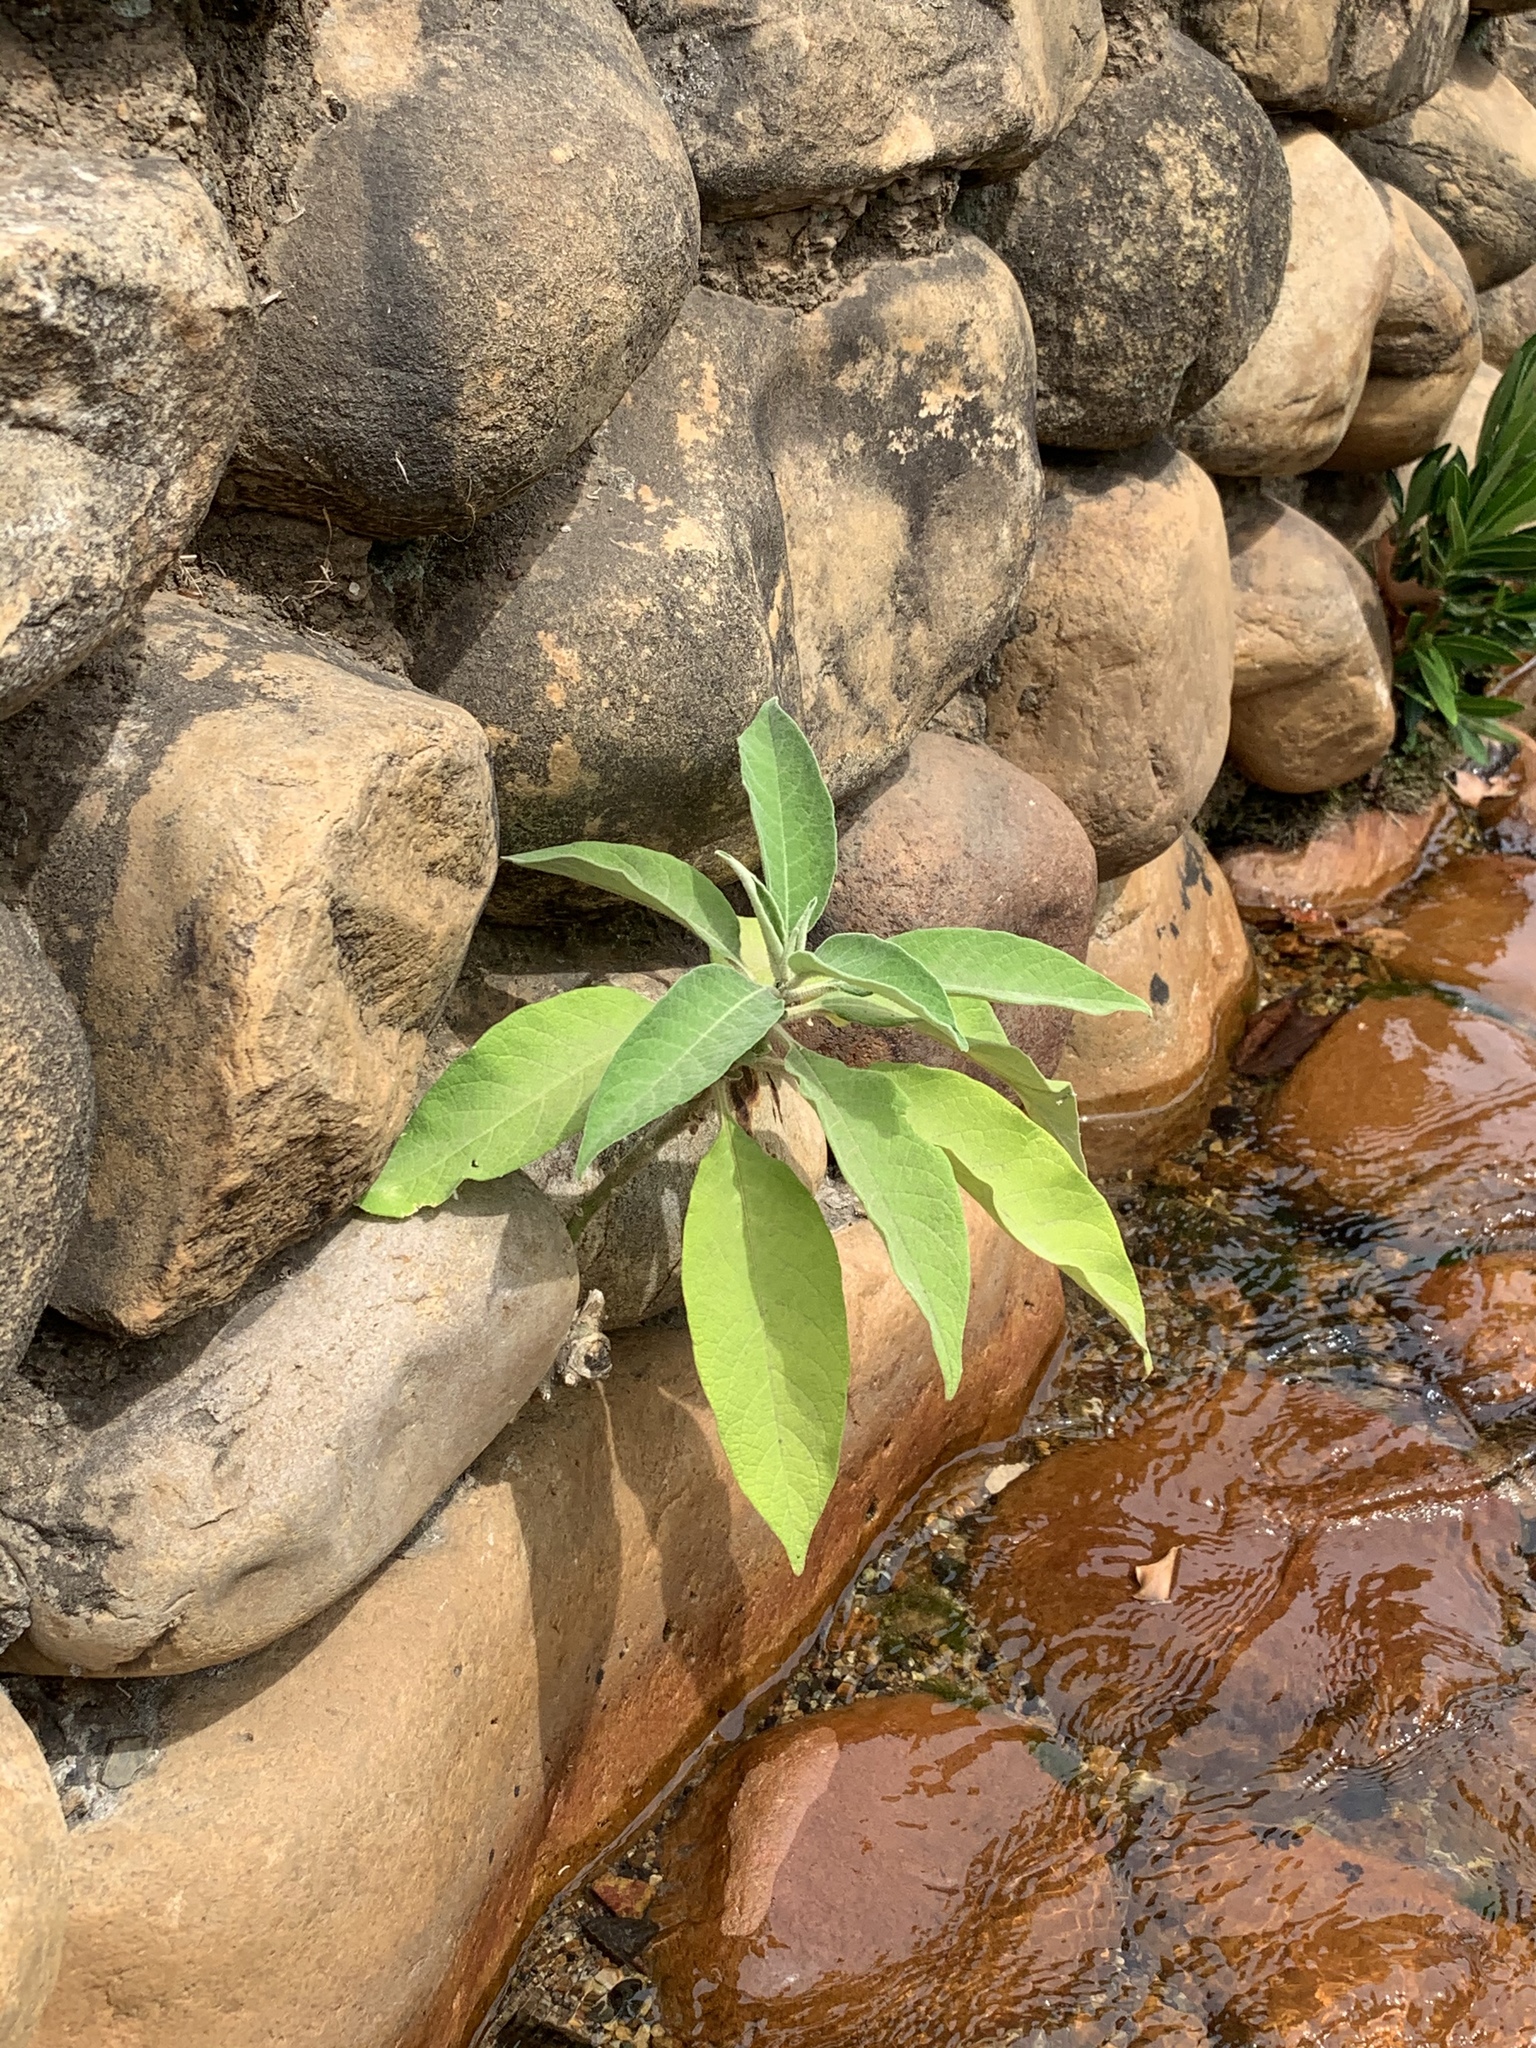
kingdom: Plantae
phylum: Tracheophyta
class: Magnoliopsida
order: Solanales
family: Solanaceae
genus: Solanum
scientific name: Solanum mauritianum
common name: Earleaf nightshade
